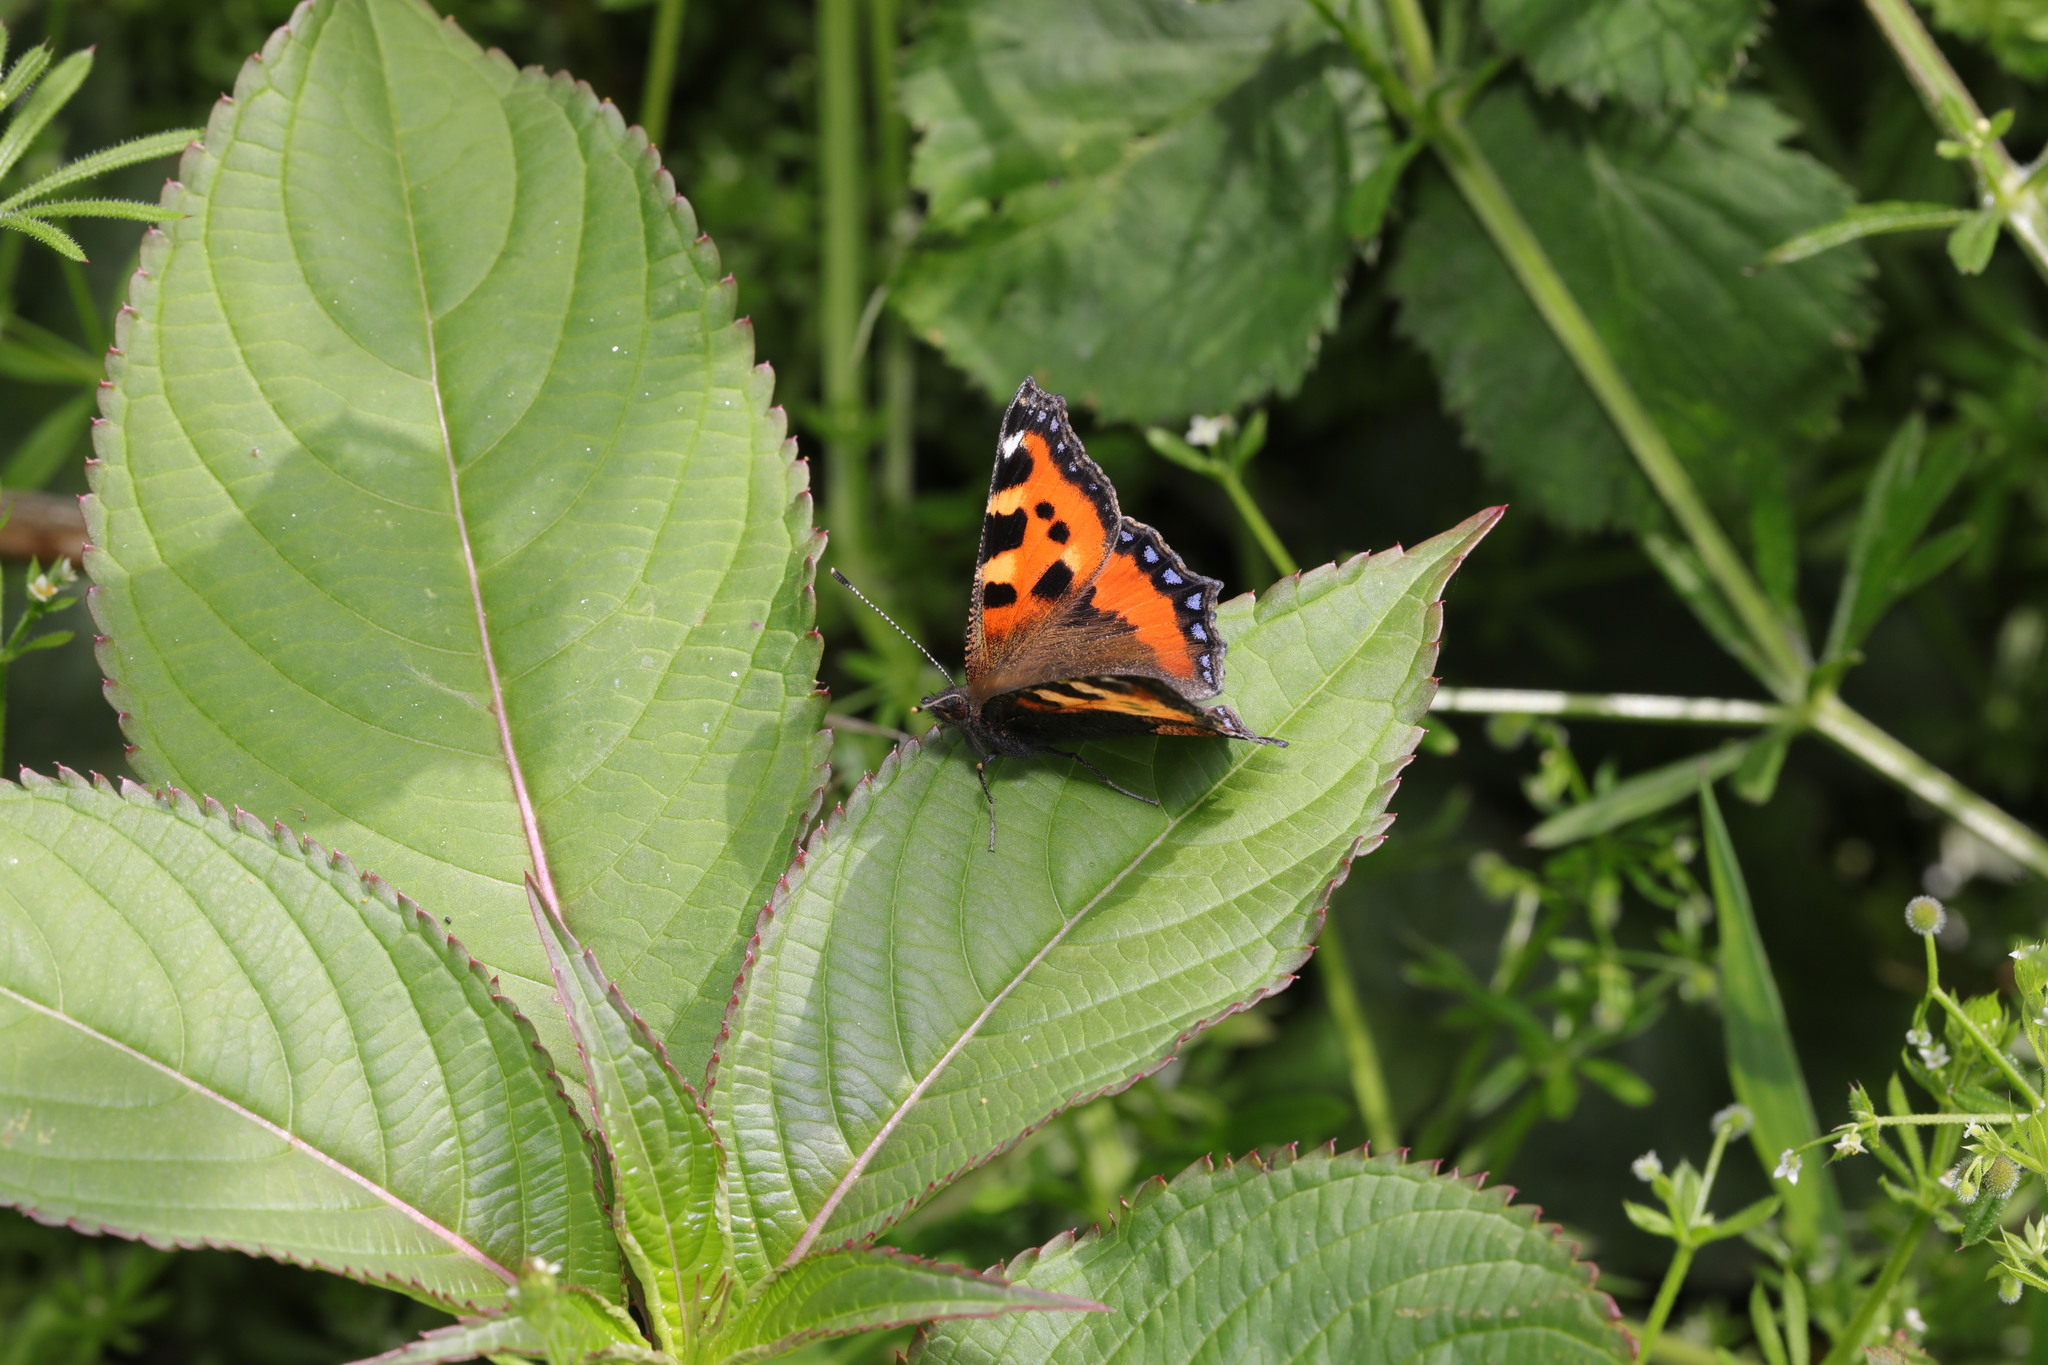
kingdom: Animalia
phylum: Arthropoda
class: Insecta
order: Lepidoptera
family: Nymphalidae
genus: Aglais
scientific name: Aglais urticae
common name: Small tortoiseshell
